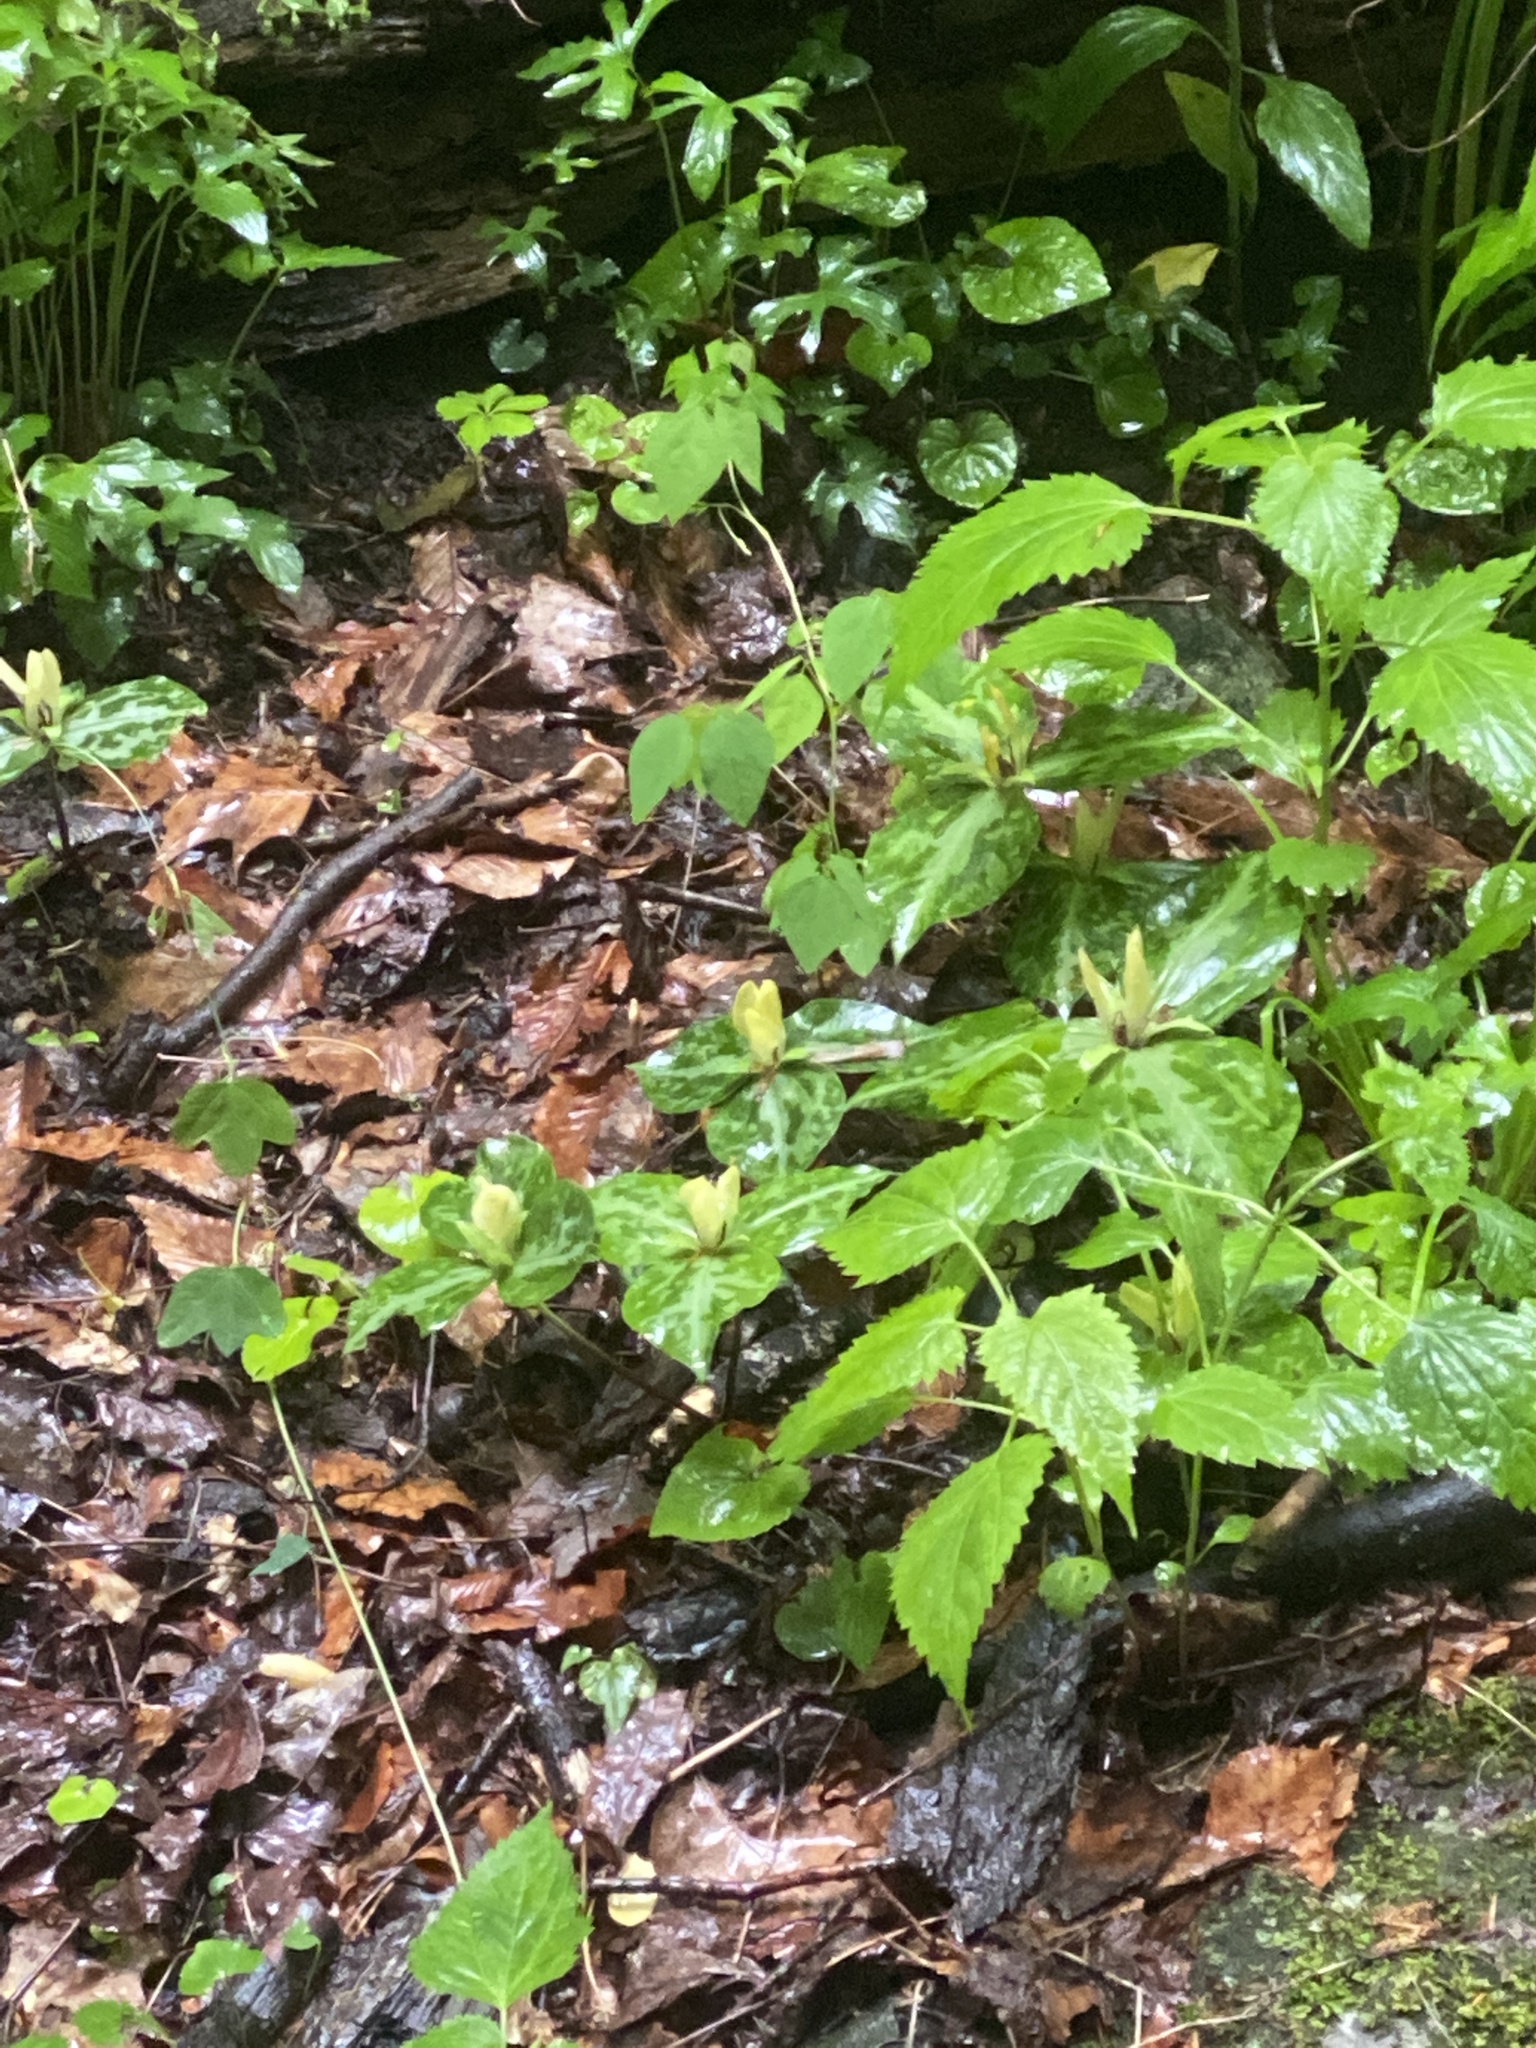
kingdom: Plantae
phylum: Tracheophyta
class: Liliopsida
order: Liliales
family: Melanthiaceae
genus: Trillium
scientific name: Trillium discolor
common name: Faded trillium
